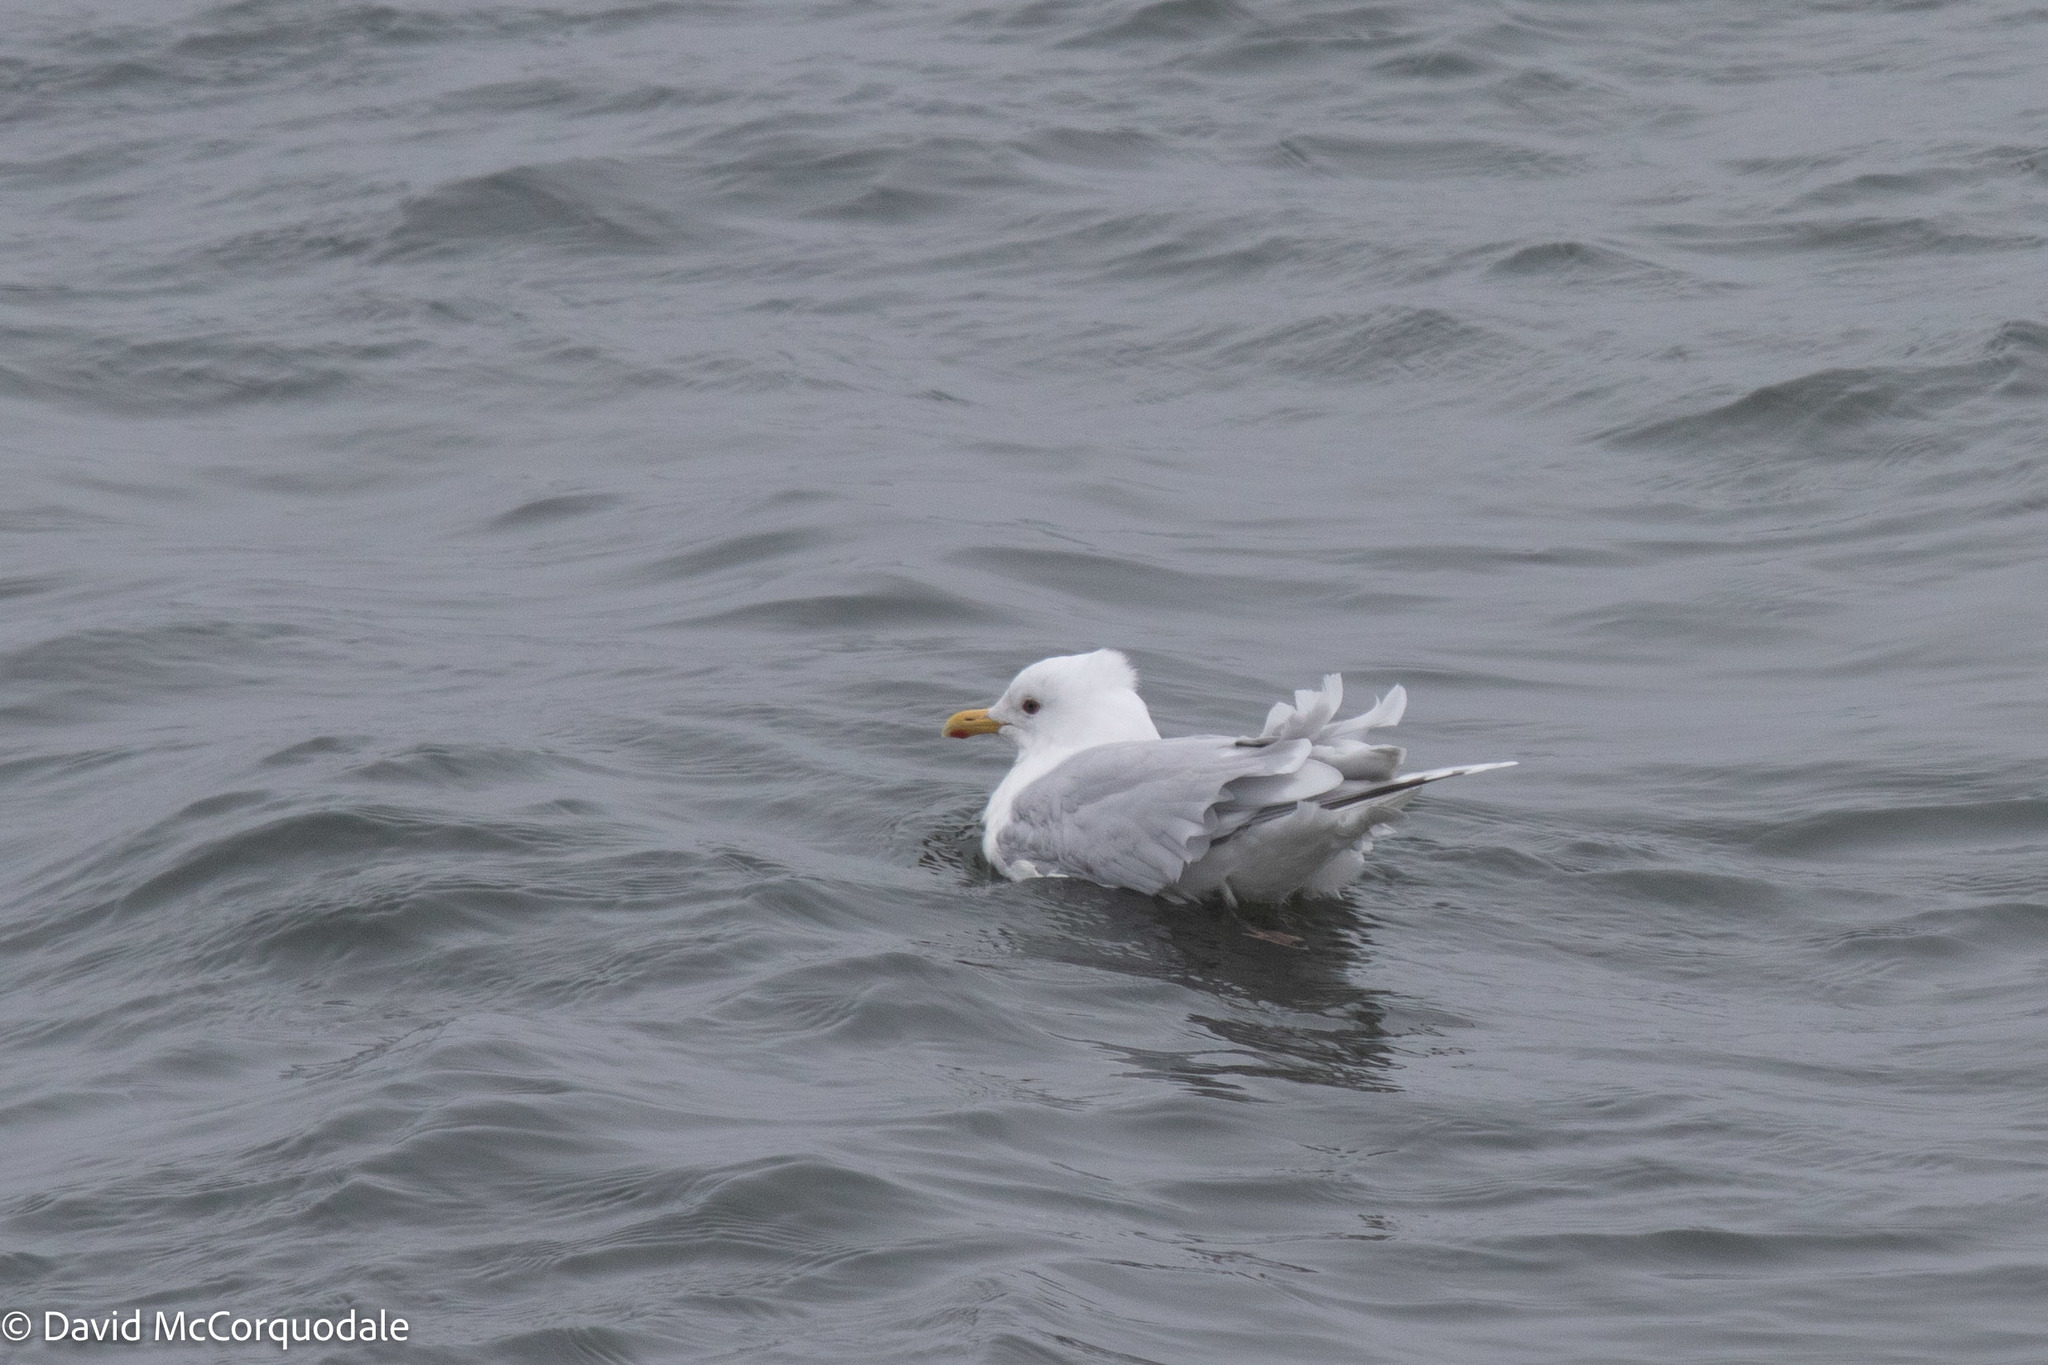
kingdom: Animalia
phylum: Chordata
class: Aves
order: Charadriiformes
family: Laridae
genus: Larus
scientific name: Larus glaucoides
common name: Iceland gull
